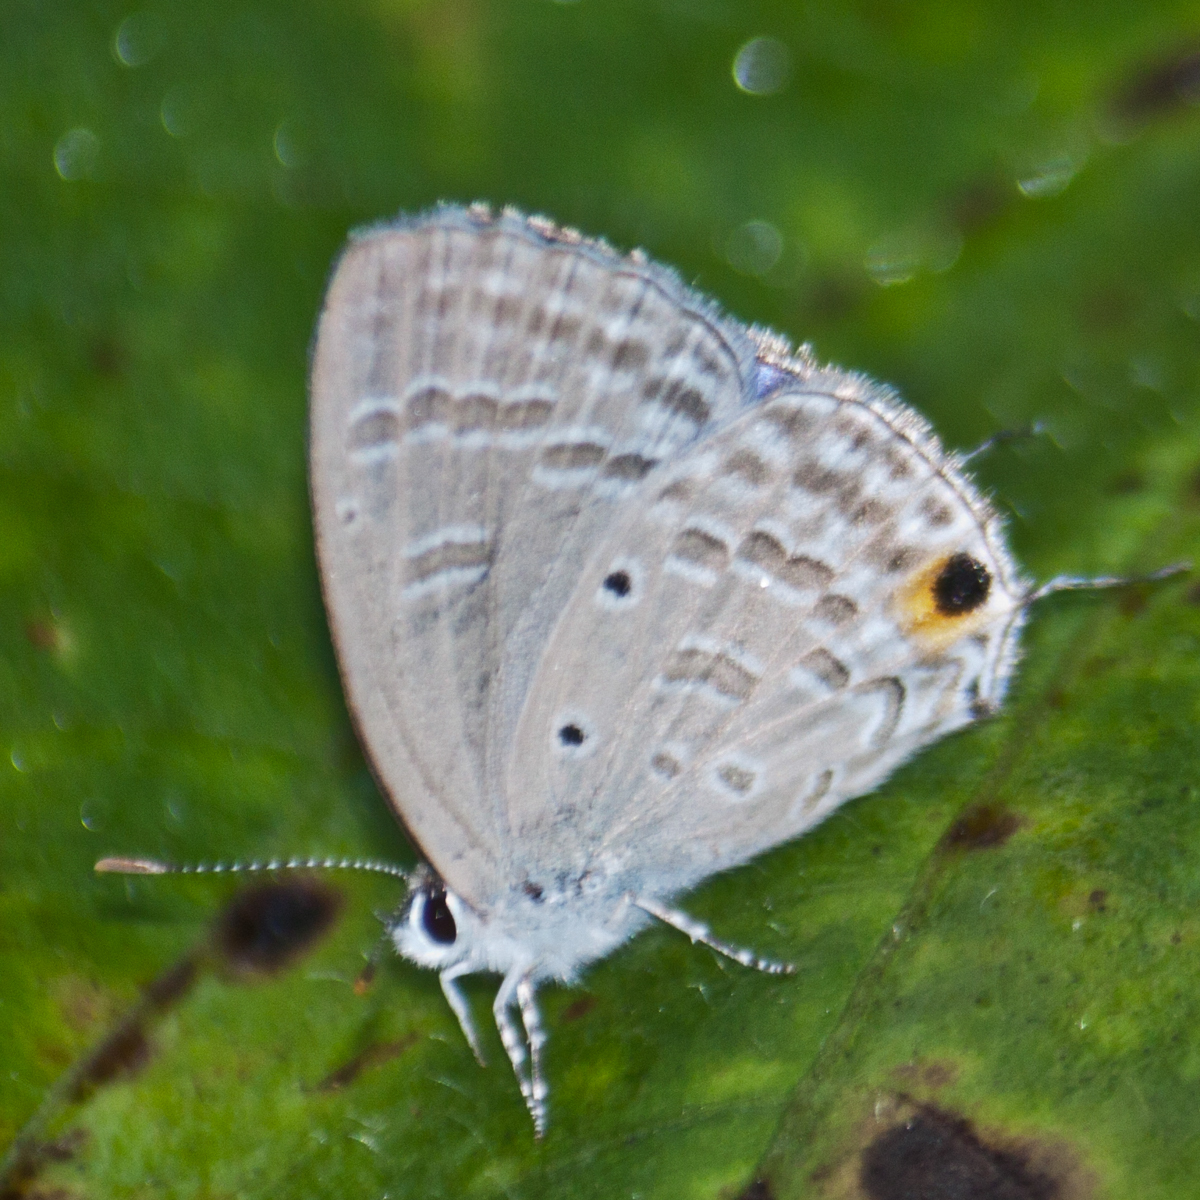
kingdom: Animalia
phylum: Arthropoda
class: Insecta
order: Lepidoptera
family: Lycaenidae
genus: Catochrysops
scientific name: Catochrysops strabo
